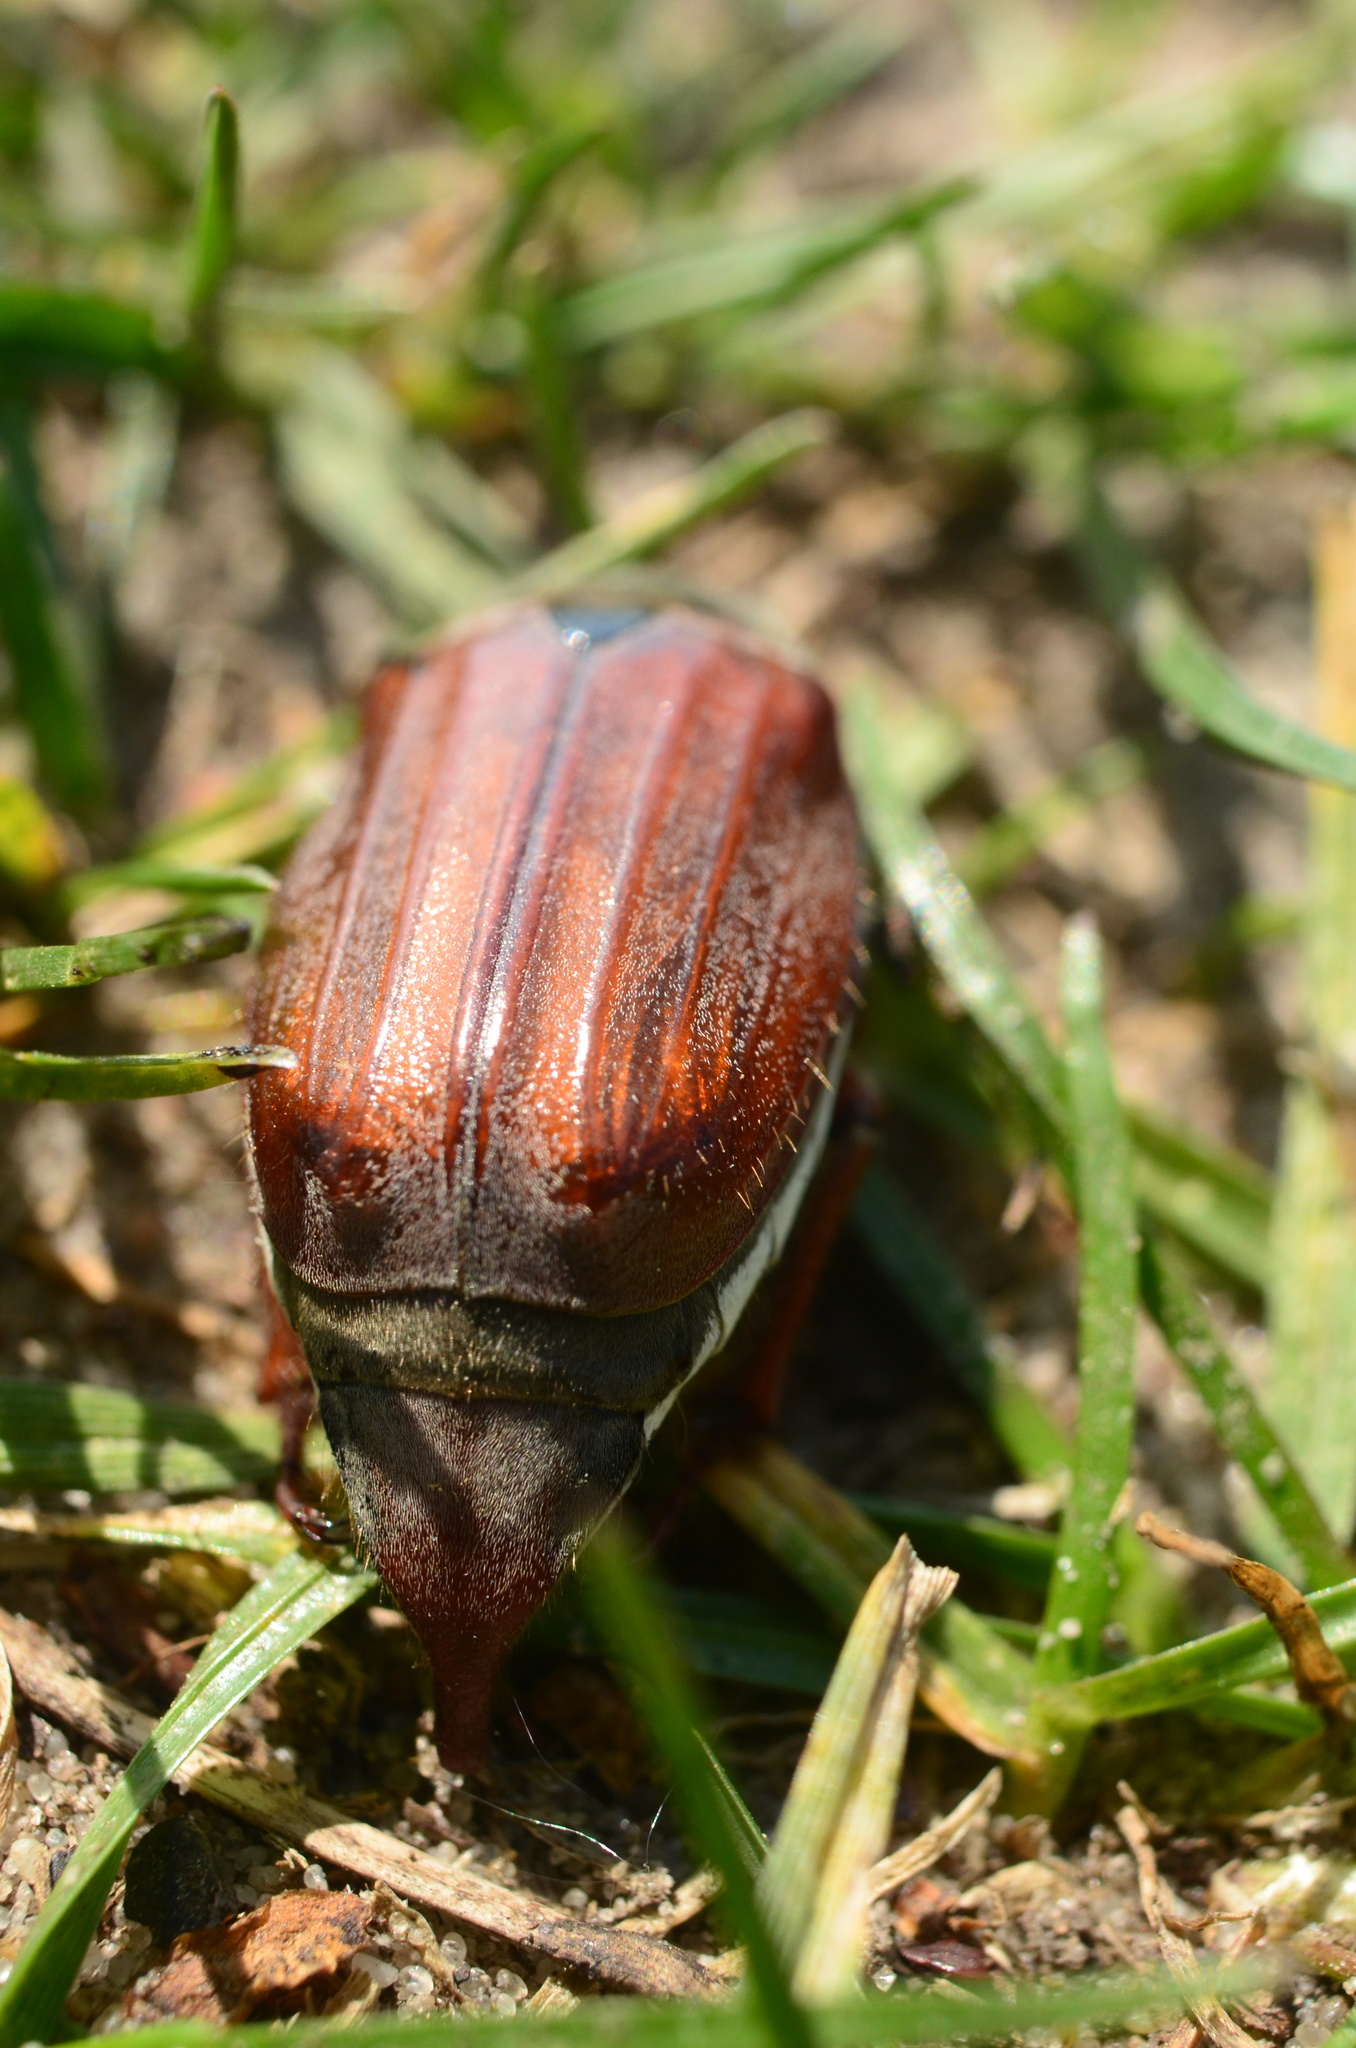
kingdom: Animalia
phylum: Arthropoda
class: Insecta
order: Coleoptera
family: Scarabaeidae
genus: Melolontha
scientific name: Melolontha melolontha
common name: Cockchafer maybeetle
